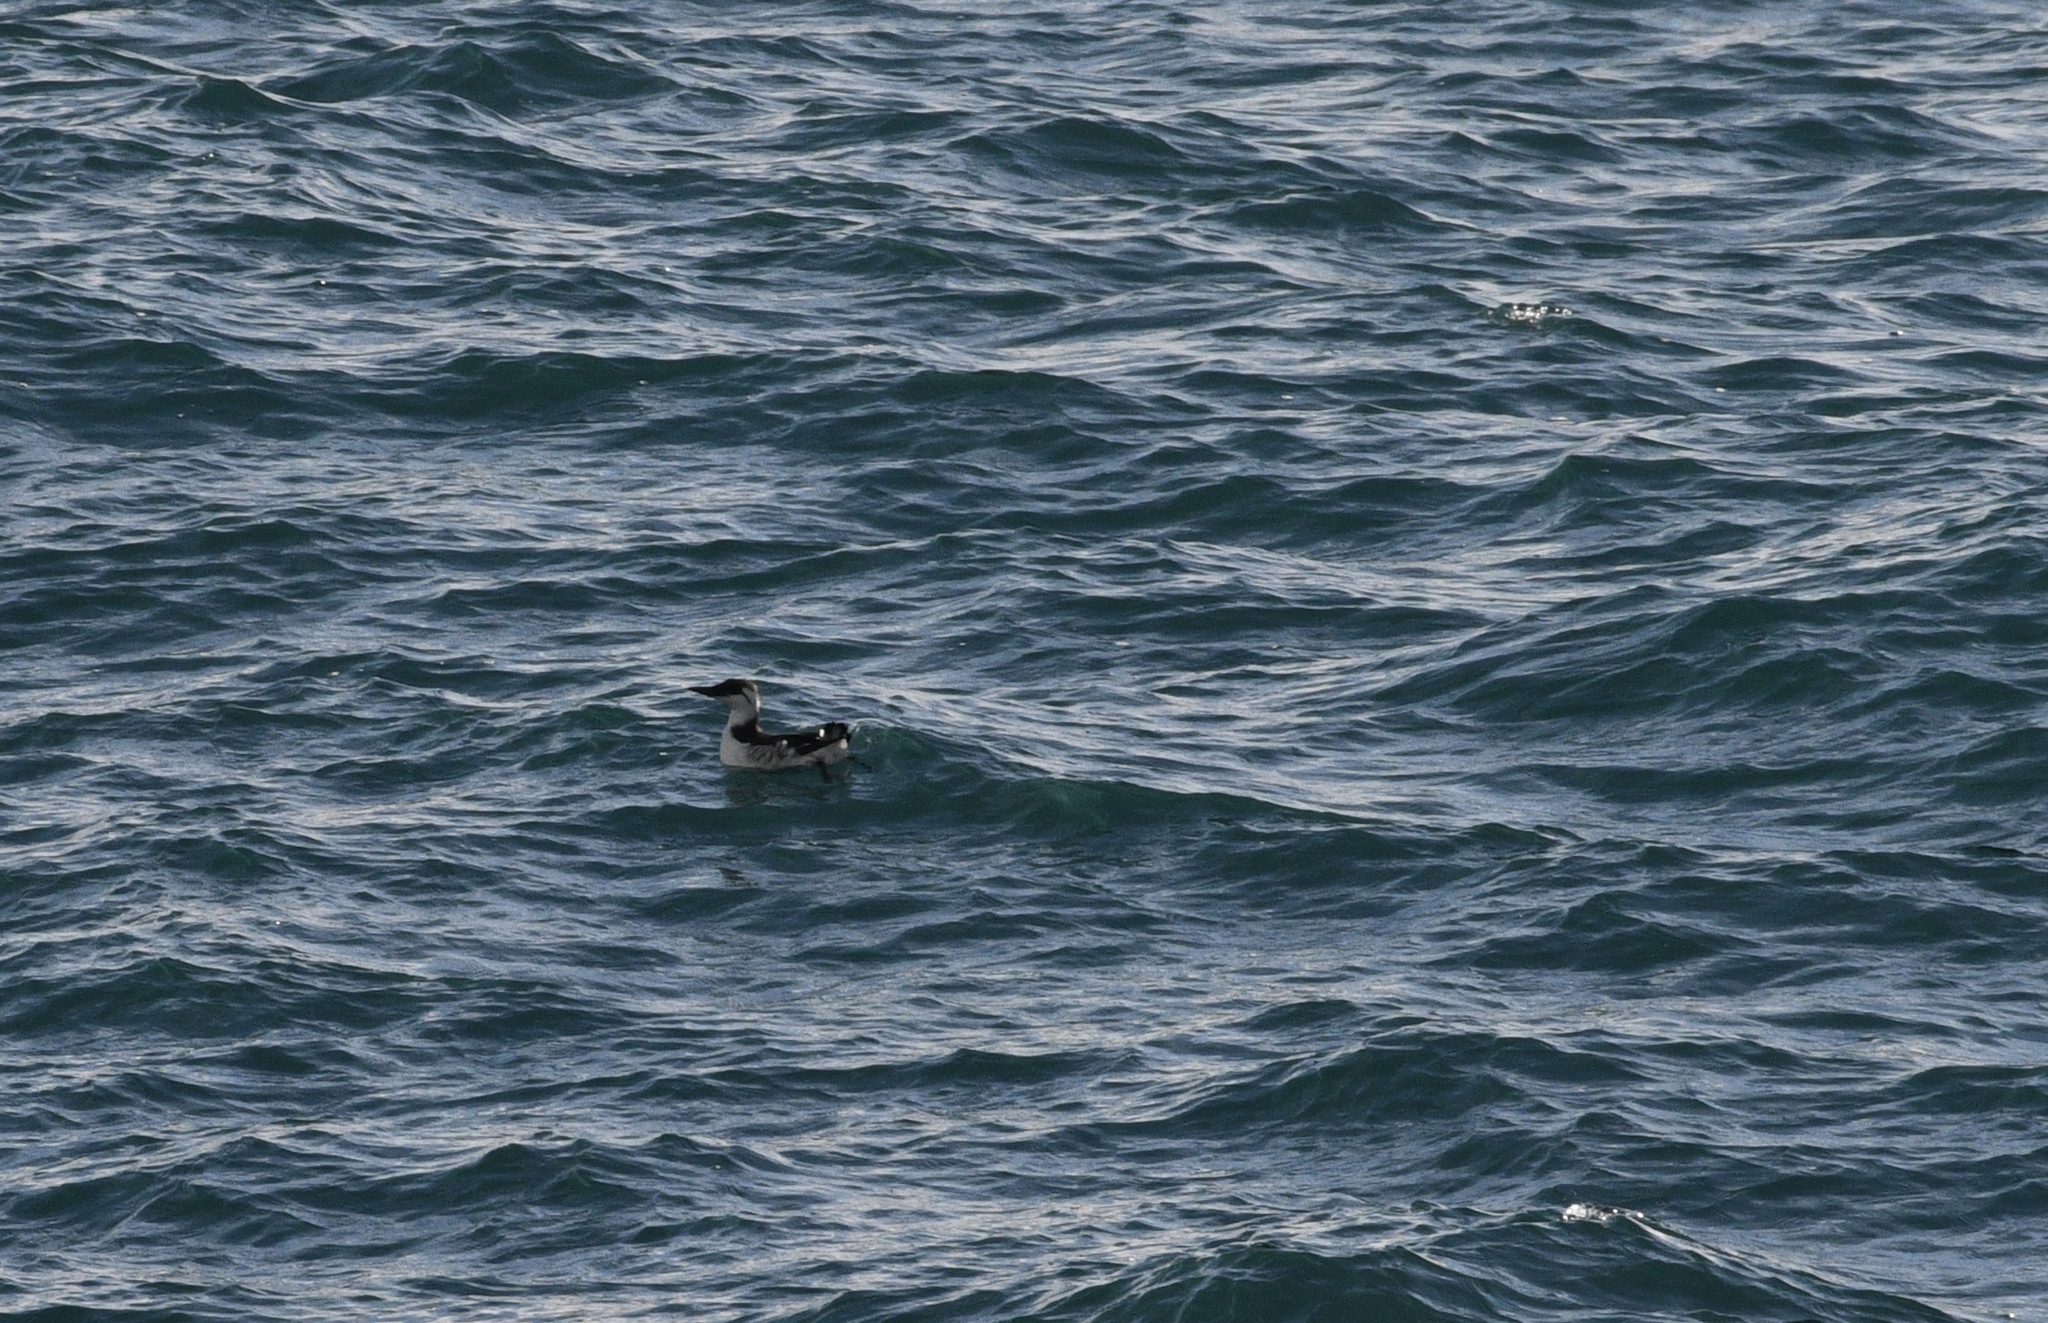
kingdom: Animalia
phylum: Chordata
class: Aves
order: Charadriiformes
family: Alcidae
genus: Uria
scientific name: Uria aalge
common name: Common murre
